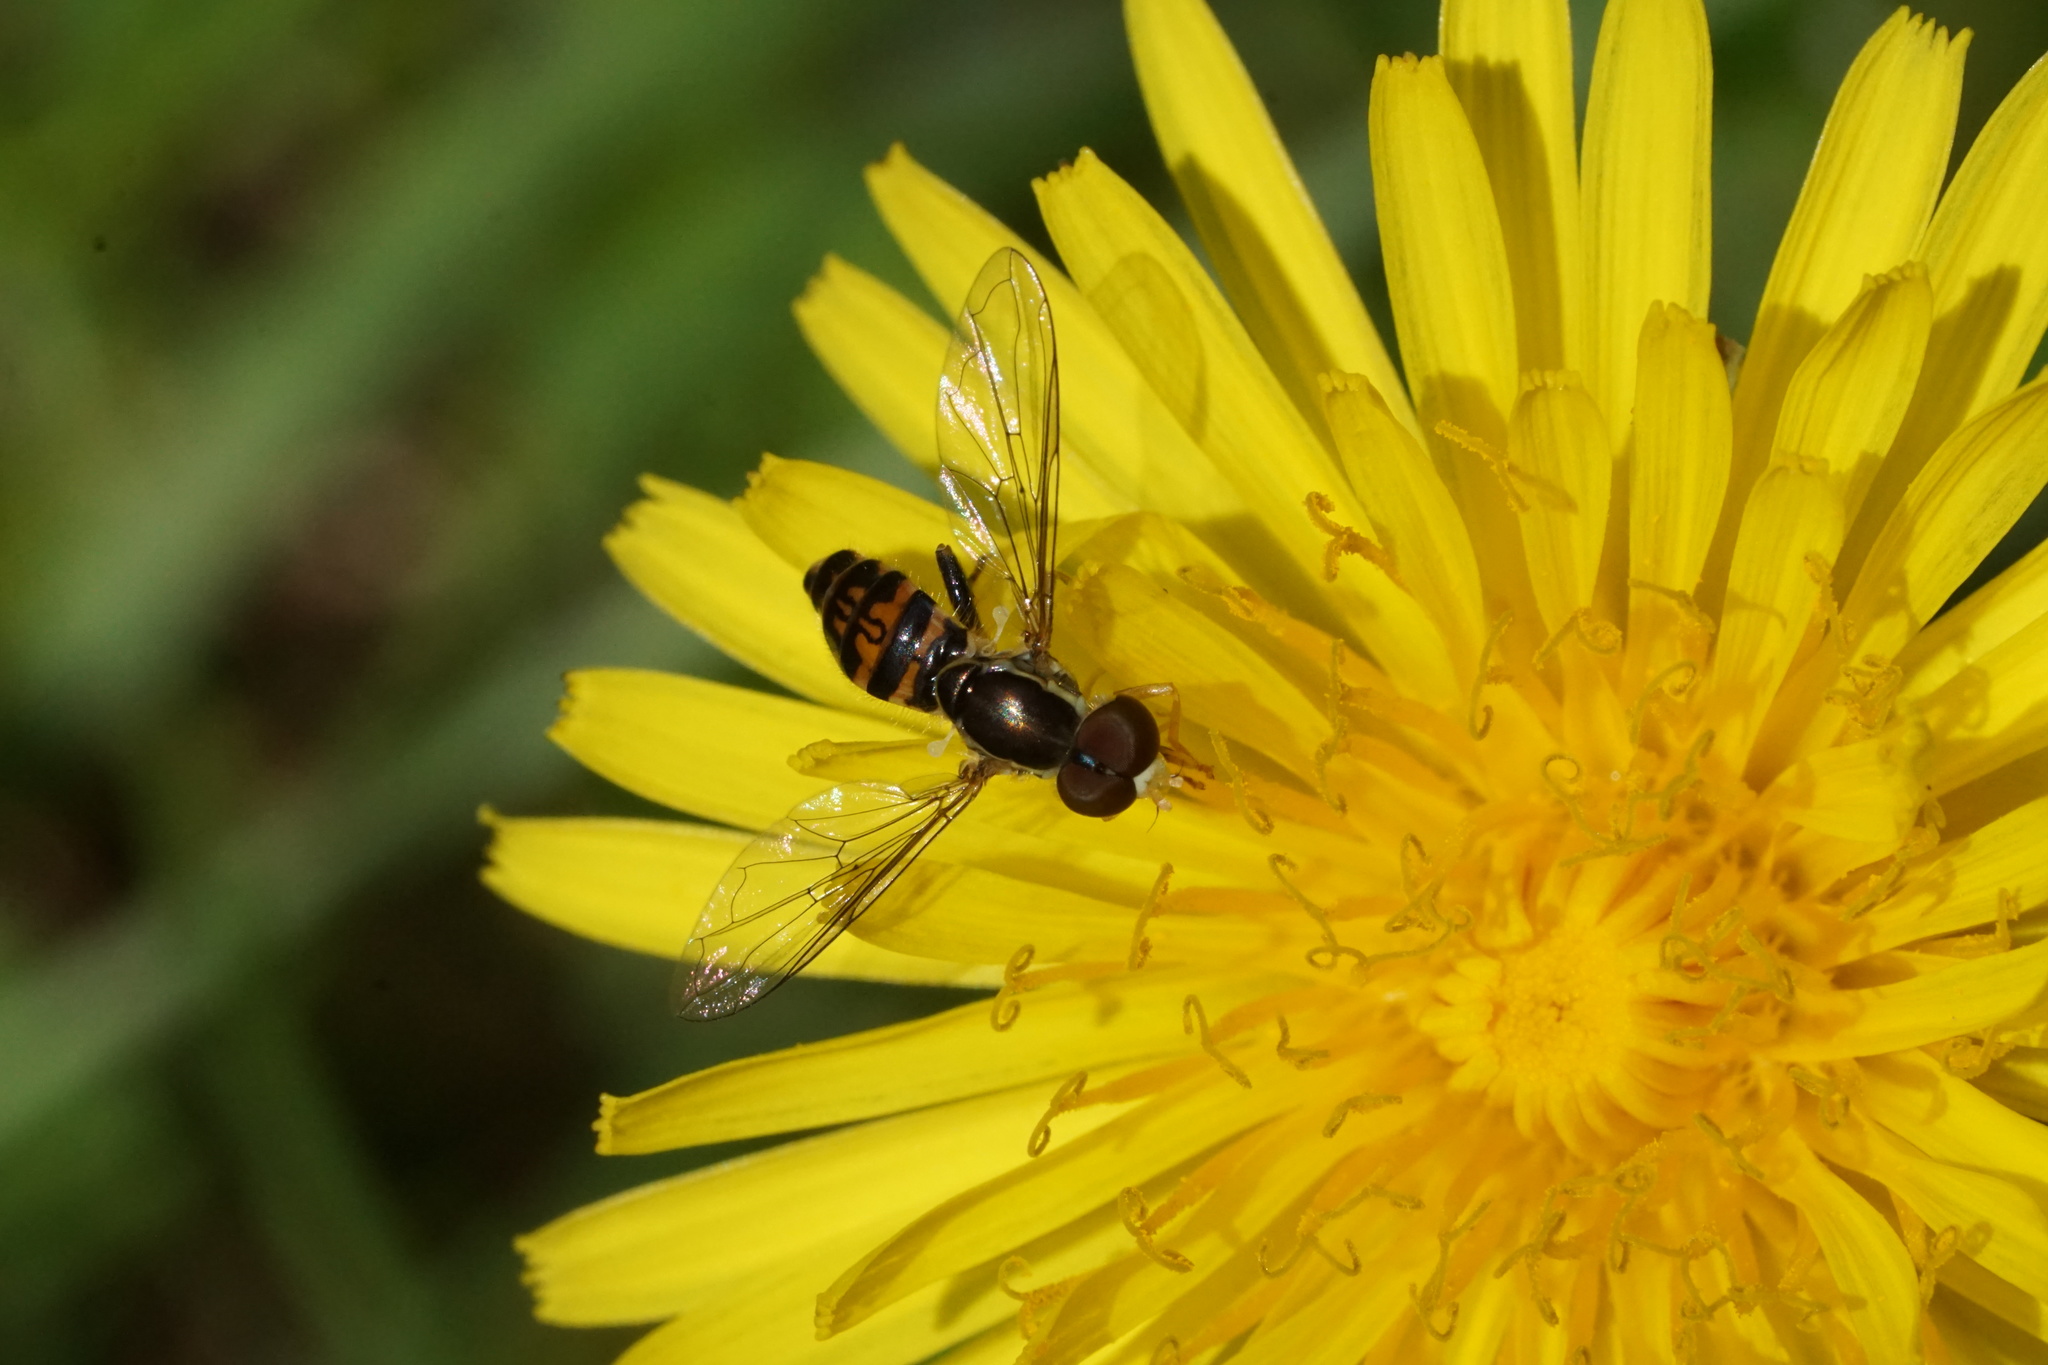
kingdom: Animalia
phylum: Arthropoda
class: Insecta
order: Diptera
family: Syrphidae
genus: Toxomerus
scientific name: Toxomerus geminatus
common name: Eastern calligrapher
